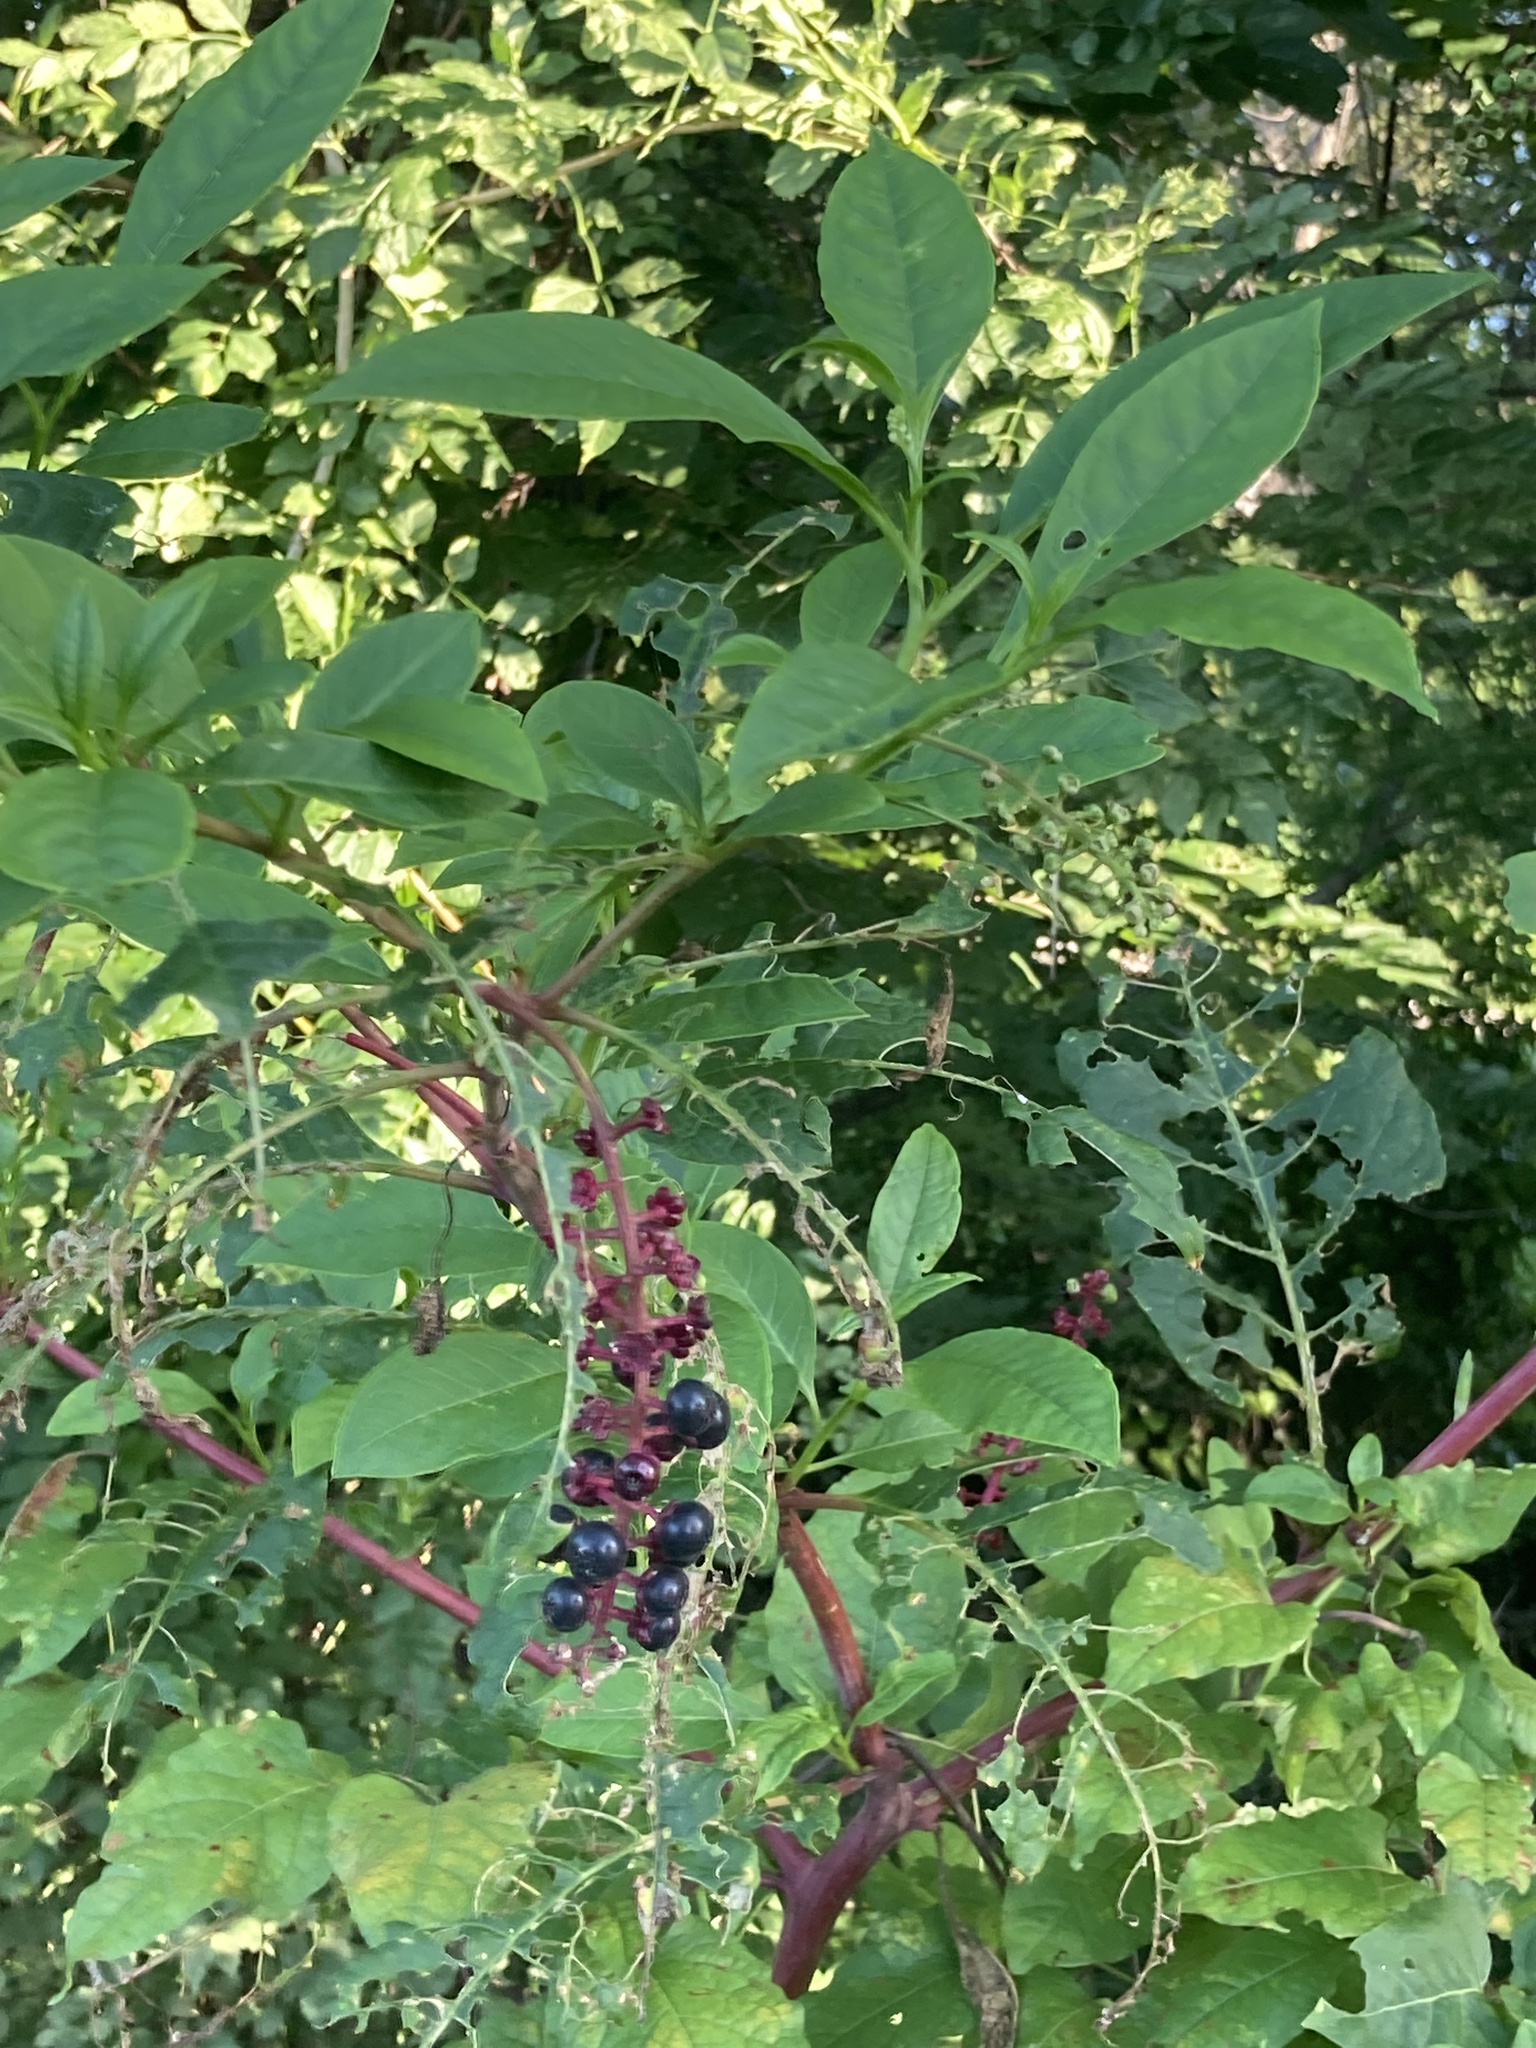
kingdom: Plantae
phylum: Tracheophyta
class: Magnoliopsida
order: Caryophyllales
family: Phytolaccaceae
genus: Phytolacca
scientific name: Phytolacca americana
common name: American pokeweed
